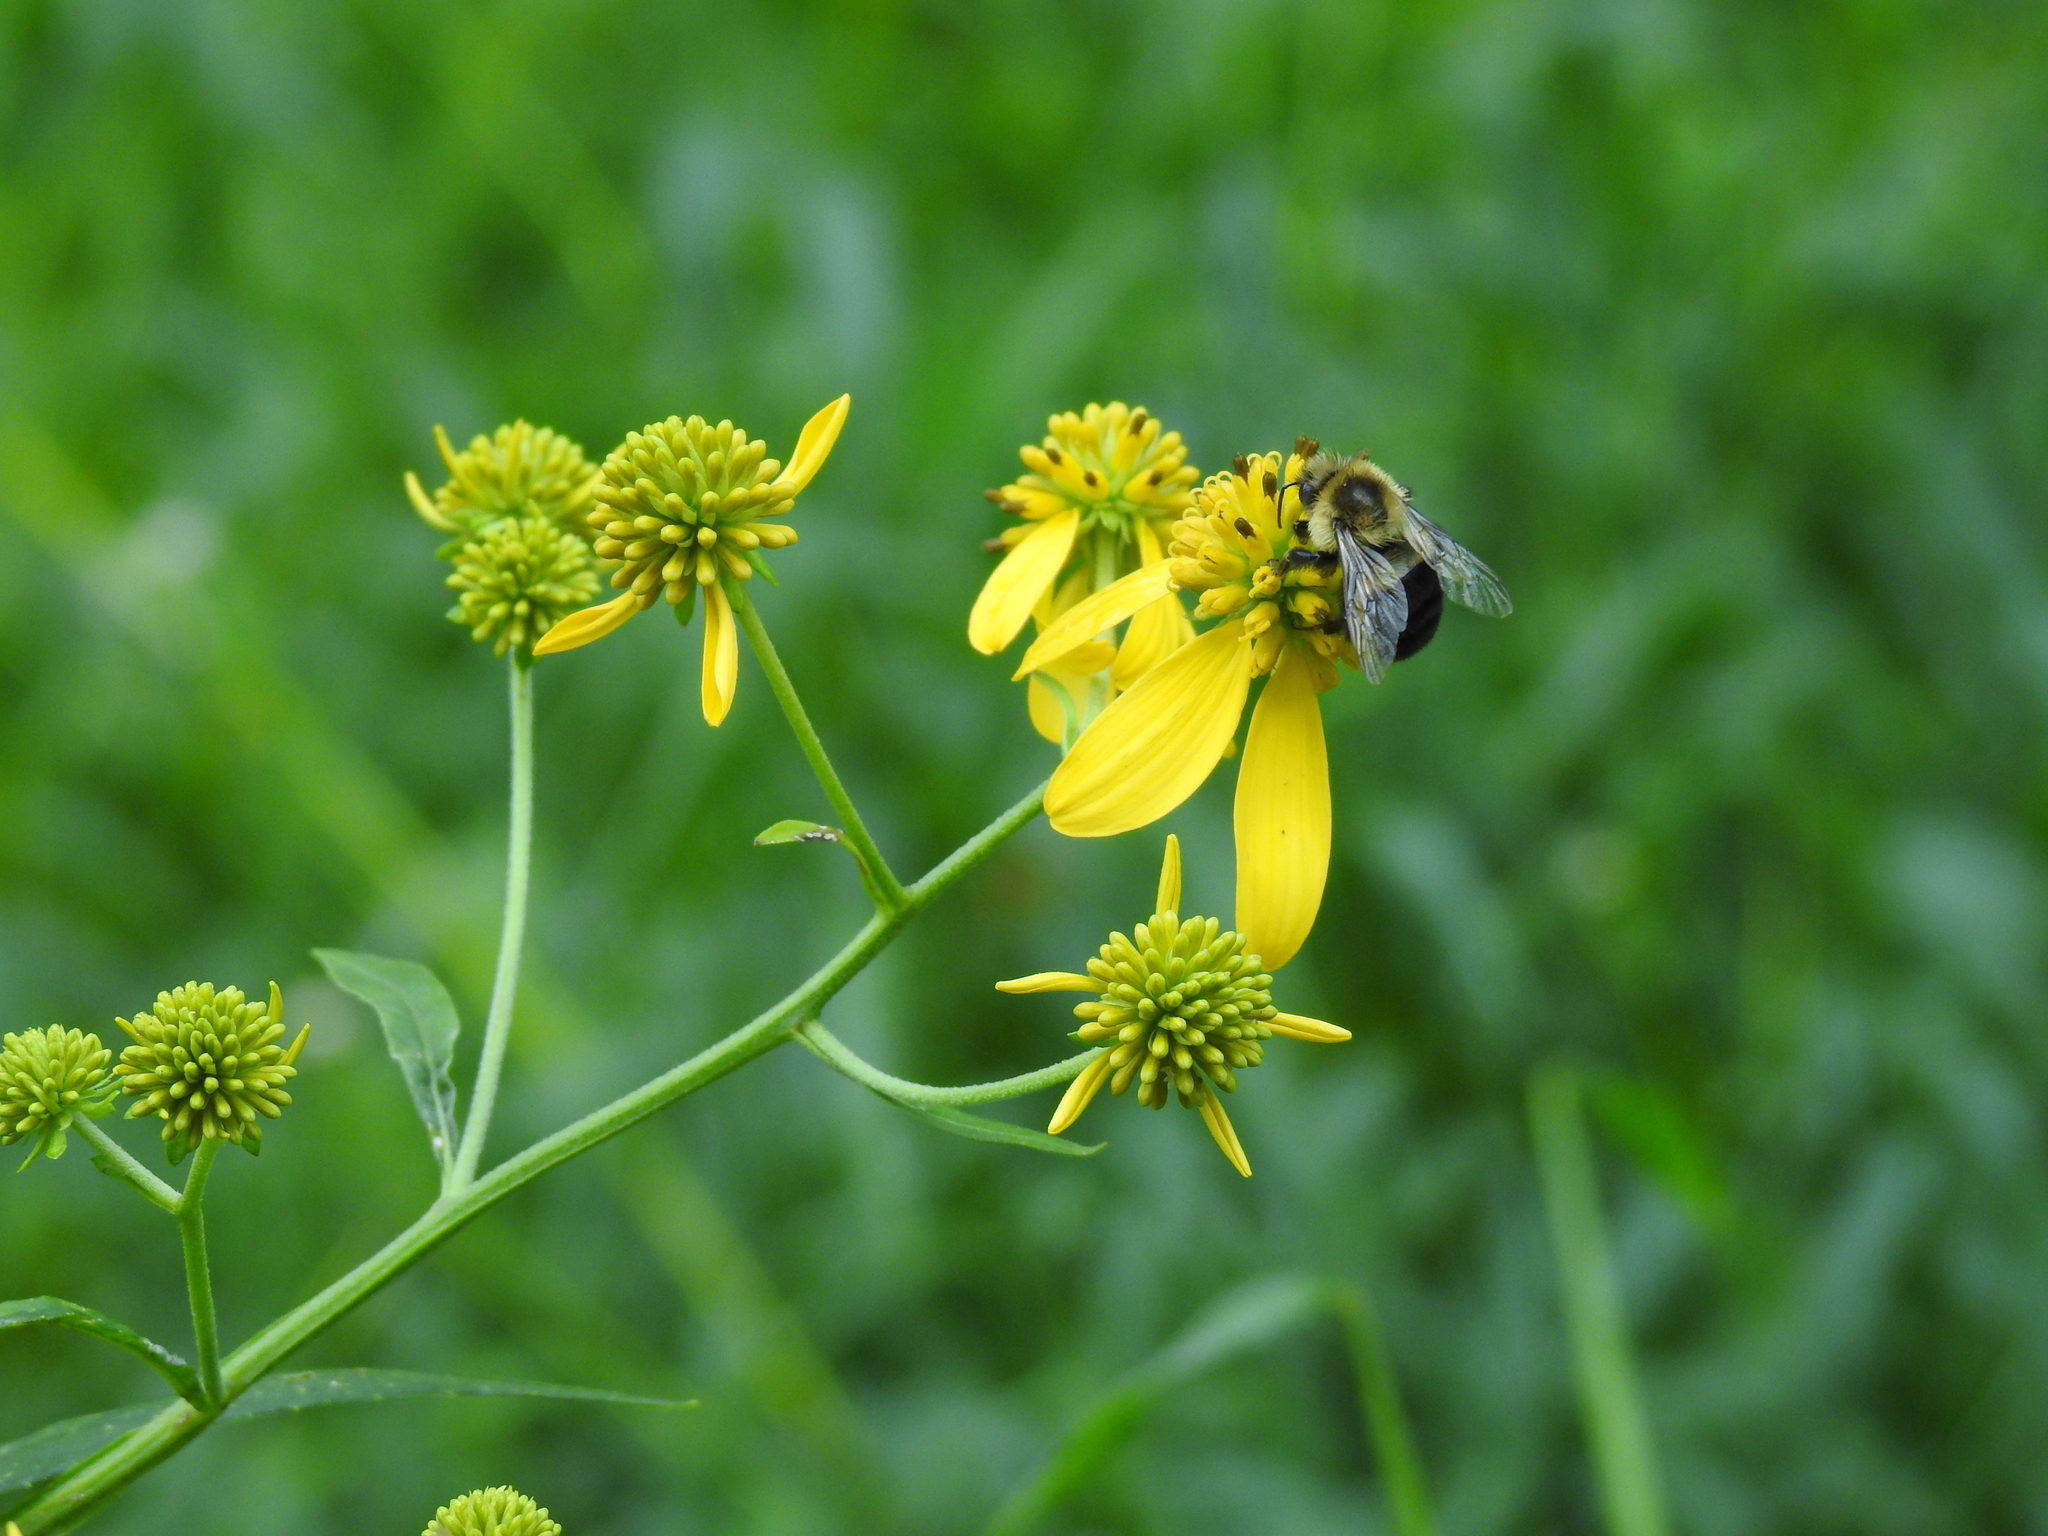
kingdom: Animalia
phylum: Arthropoda
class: Insecta
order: Hymenoptera
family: Apidae
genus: Bombus
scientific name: Bombus impatiens
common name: Common eastern bumble bee
